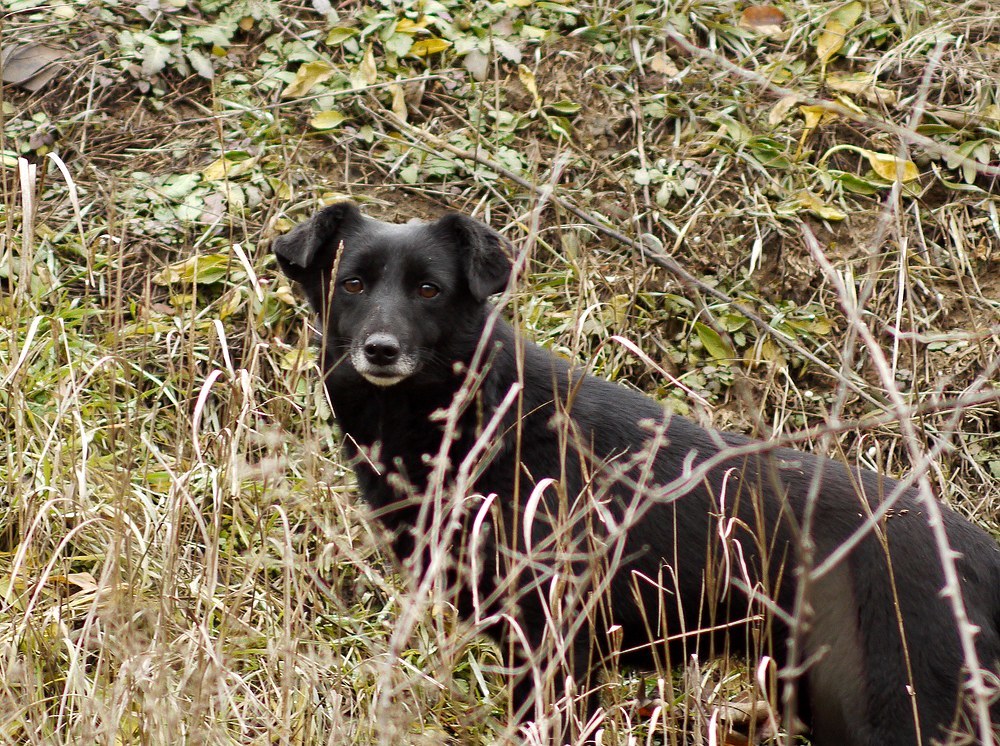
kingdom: Animalia
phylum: Chordata
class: Mammalia
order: Carnivora
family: Canidae
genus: Canis
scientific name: Canis lupus
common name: Gray wolf
